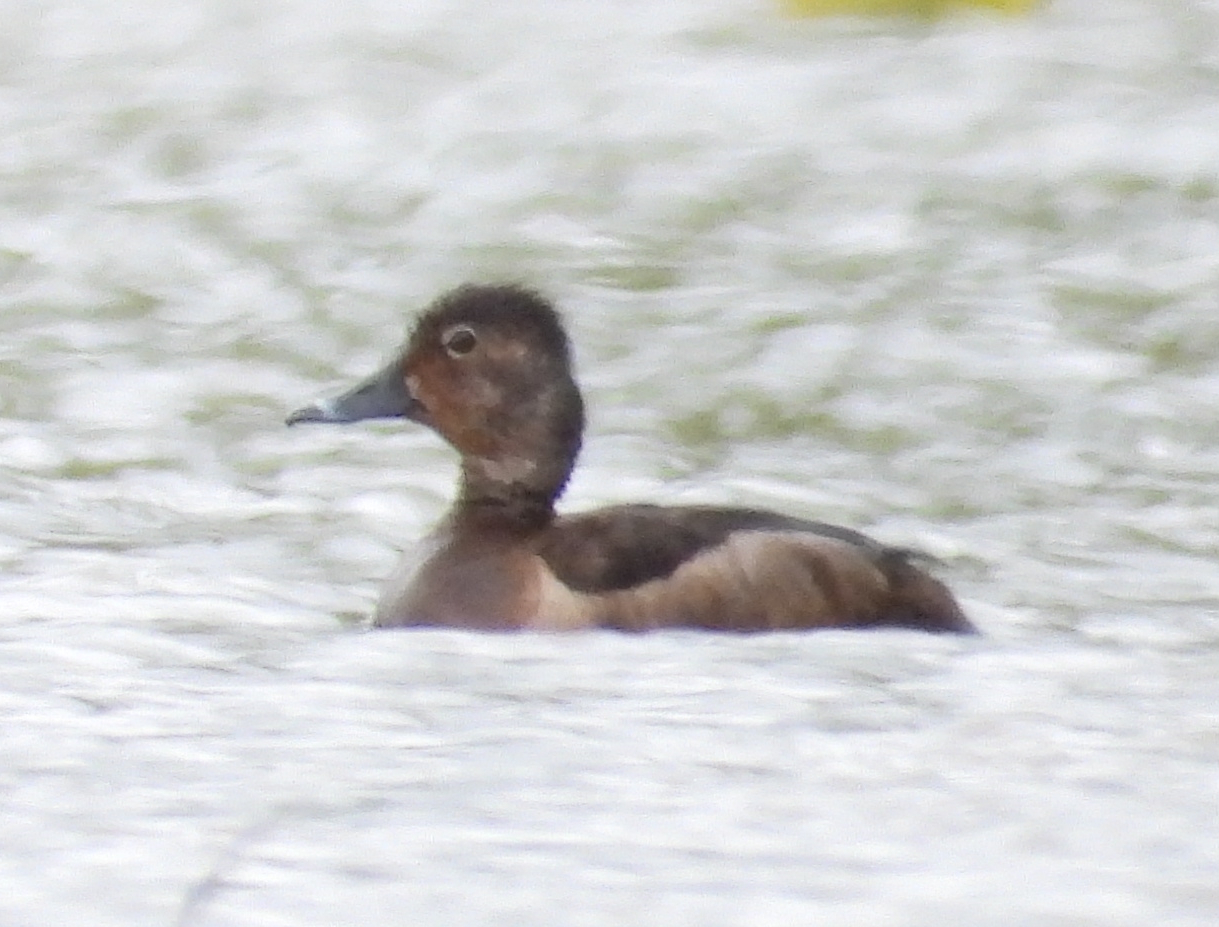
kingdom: Animalia
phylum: Chordata
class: Aves
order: Anseriformes
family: Anatidae
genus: Aythya
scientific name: Aythya collaris
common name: Ring-necked duck
